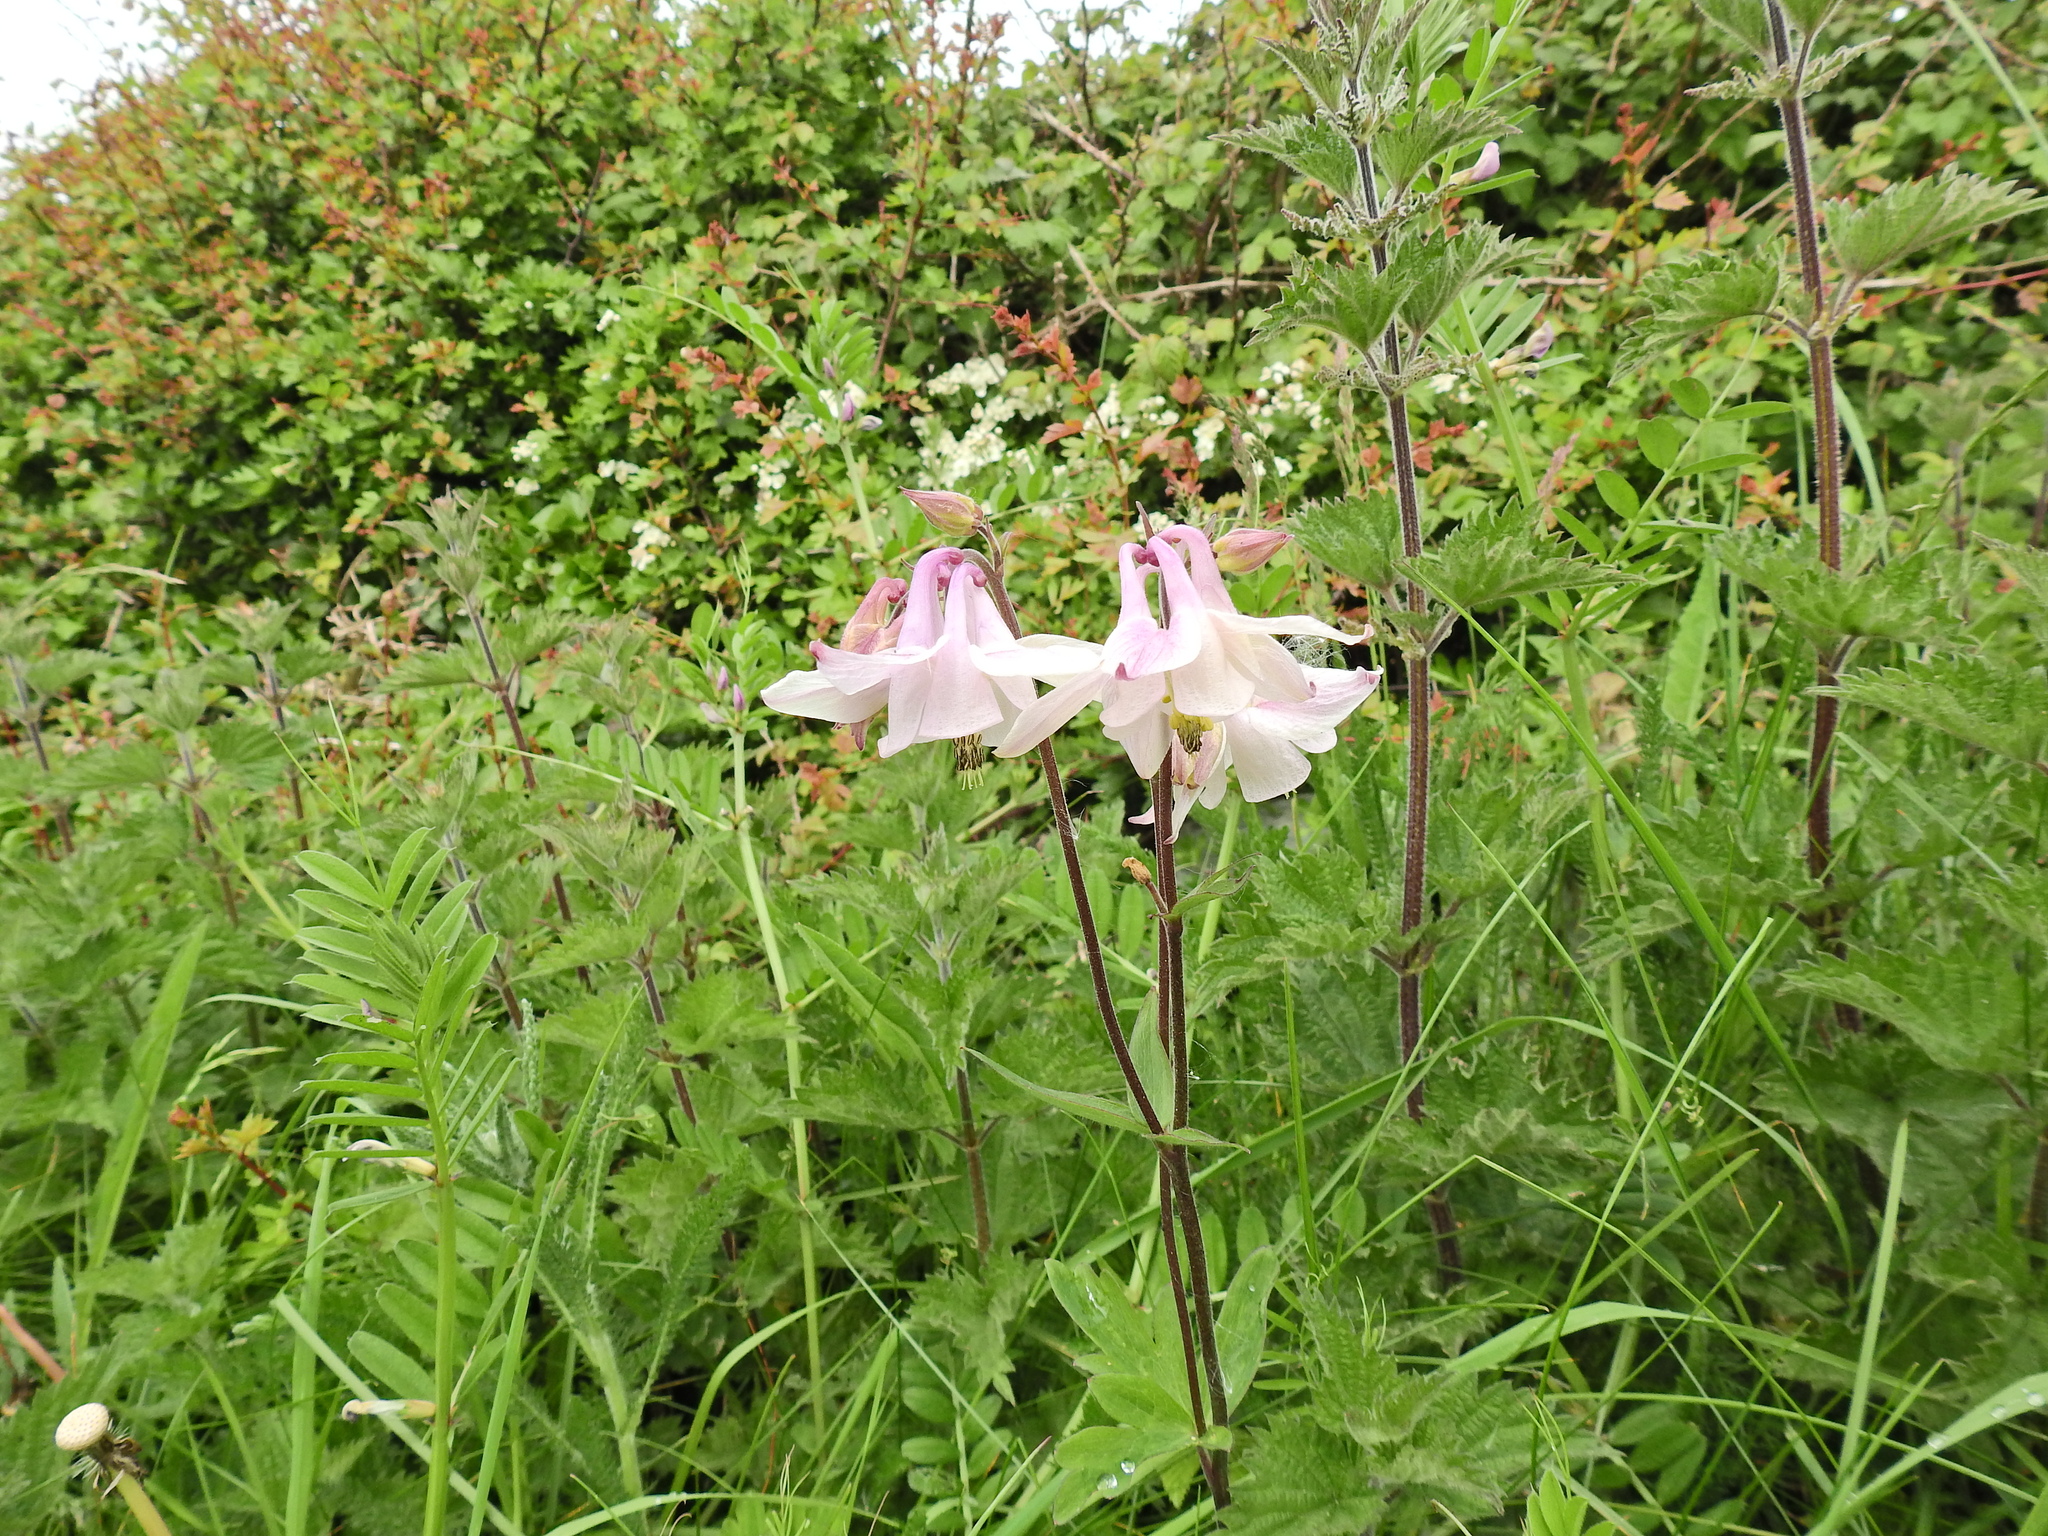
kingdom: Plantae
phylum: Tracheophyta
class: Magnoliopsida
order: Ranunculales
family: Ranunculaceae
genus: Aquilegia
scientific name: Aquilegia vulgaris
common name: Columbine
